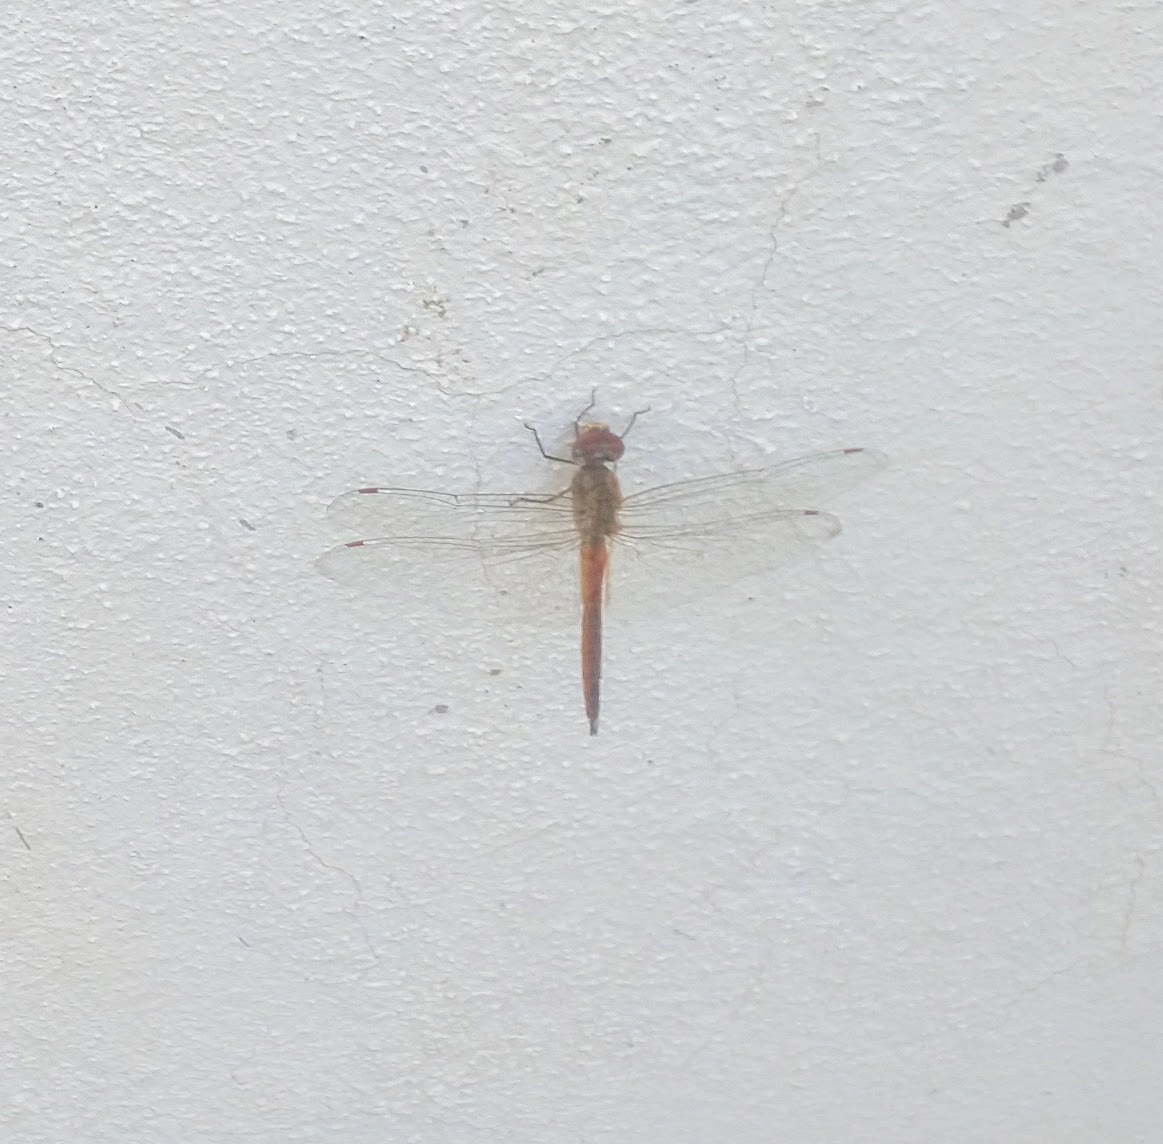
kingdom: Animalia
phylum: Arthropoda
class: Insecta
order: Odonata
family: Libellulidae
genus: Pantala
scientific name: Pantala flavescens
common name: Wandering glider
